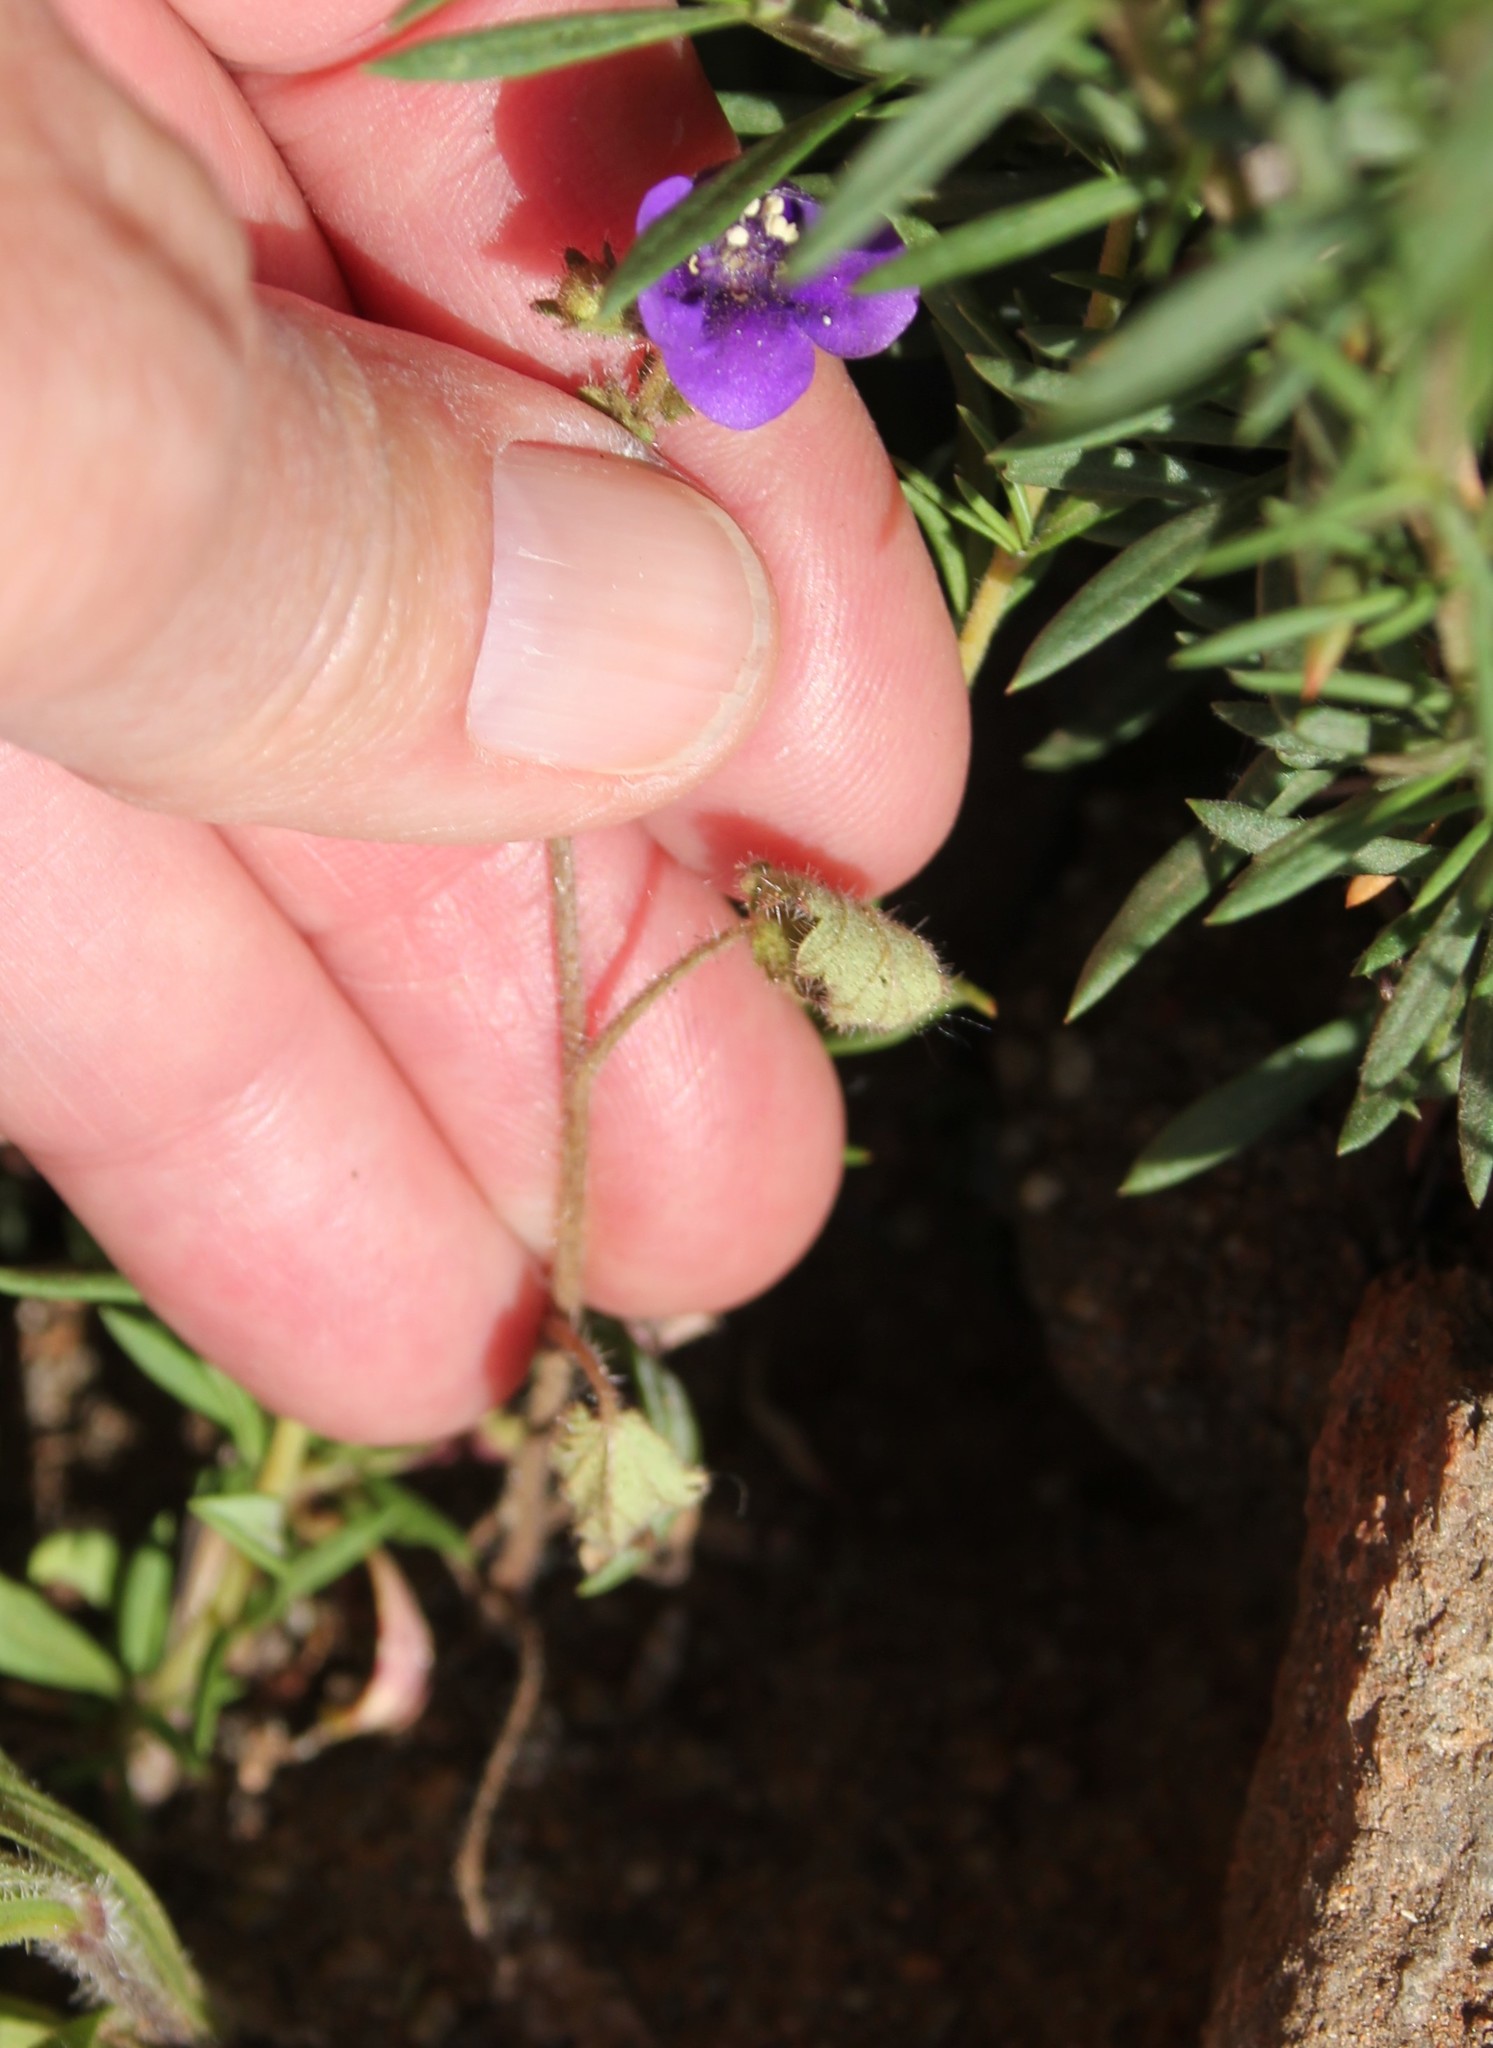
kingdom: Plantae
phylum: Tracheophyta
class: Magnoliopsida
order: Boraginales
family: Hydrophyllaceae
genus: Phacelia
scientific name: Phacelia parryi
